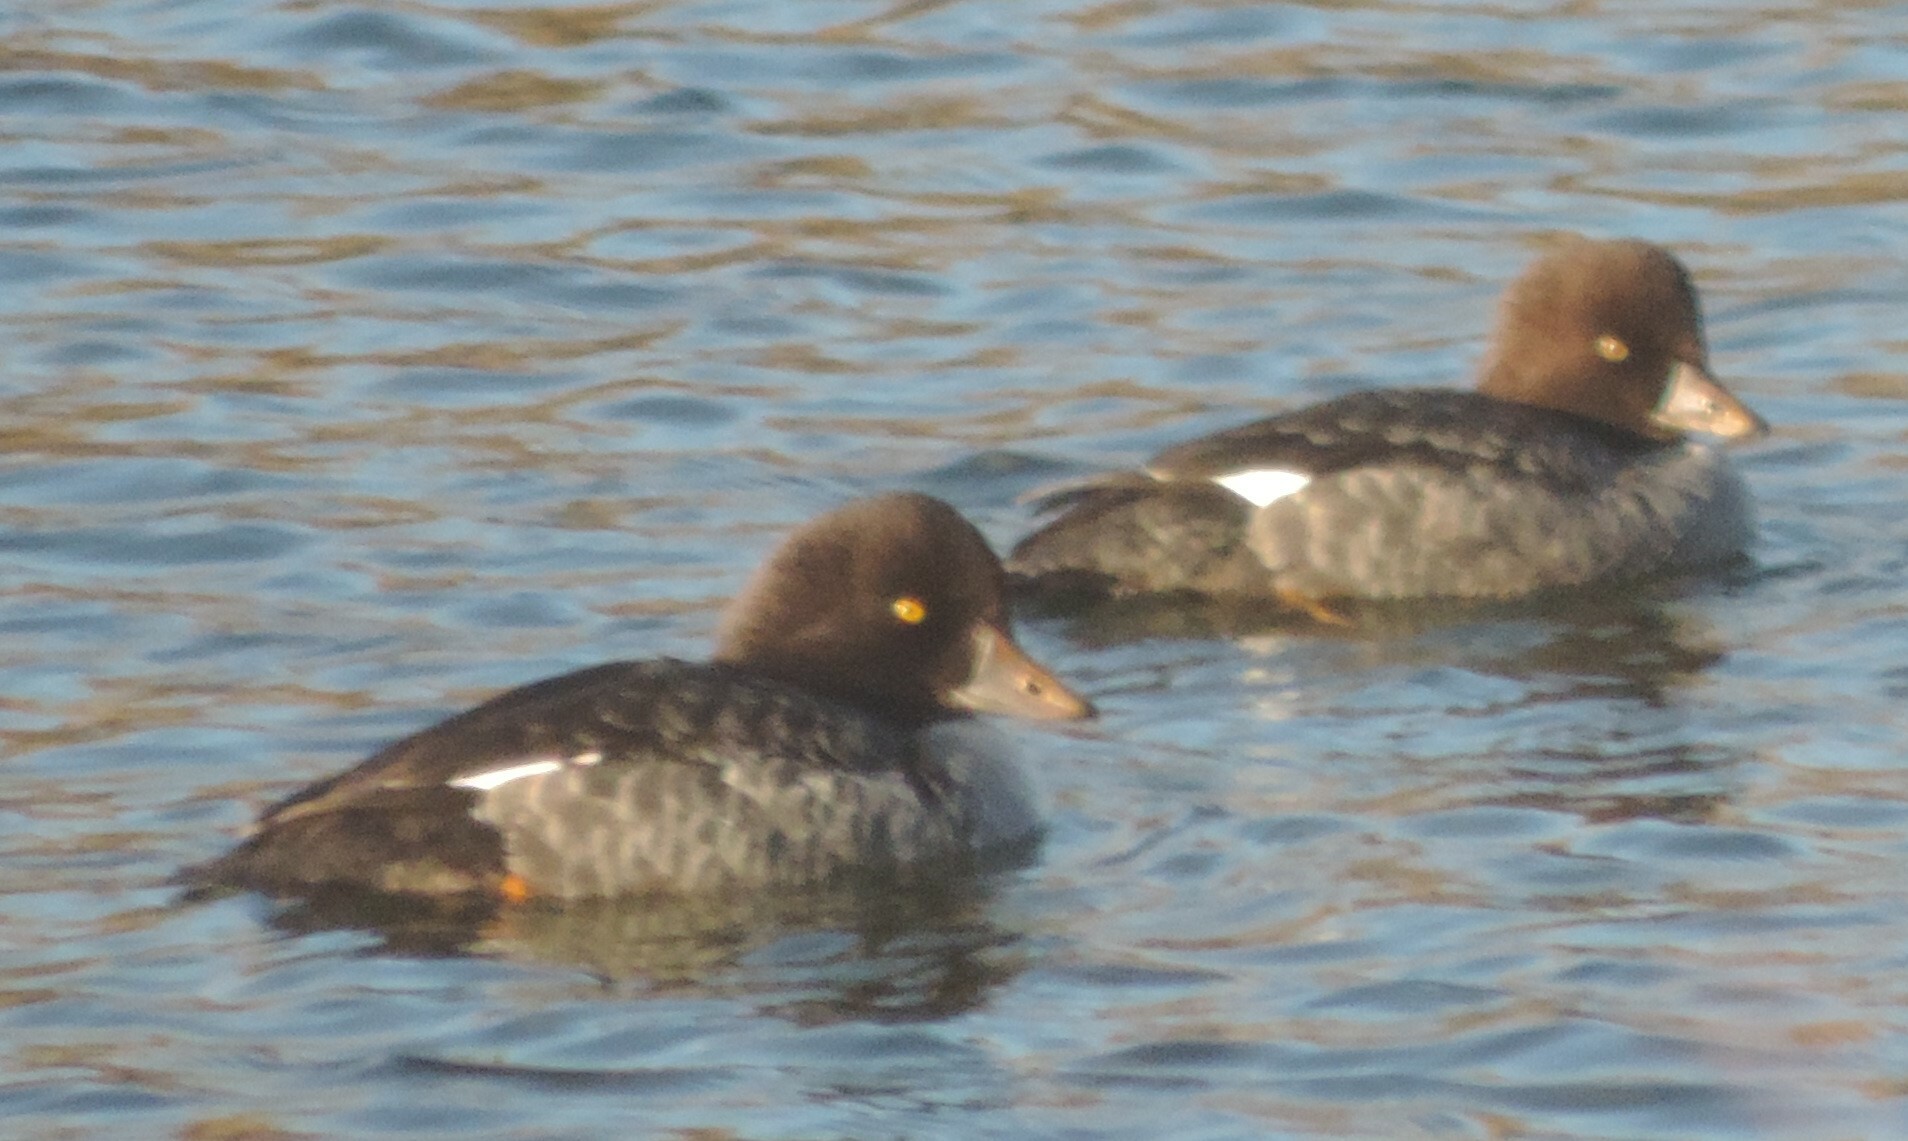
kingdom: Animalia
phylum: Chordata
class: Aves
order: Anseriformes
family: Anatidae
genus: Bucephala
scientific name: Bucephala islandica
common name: Barrow's goldeneye
